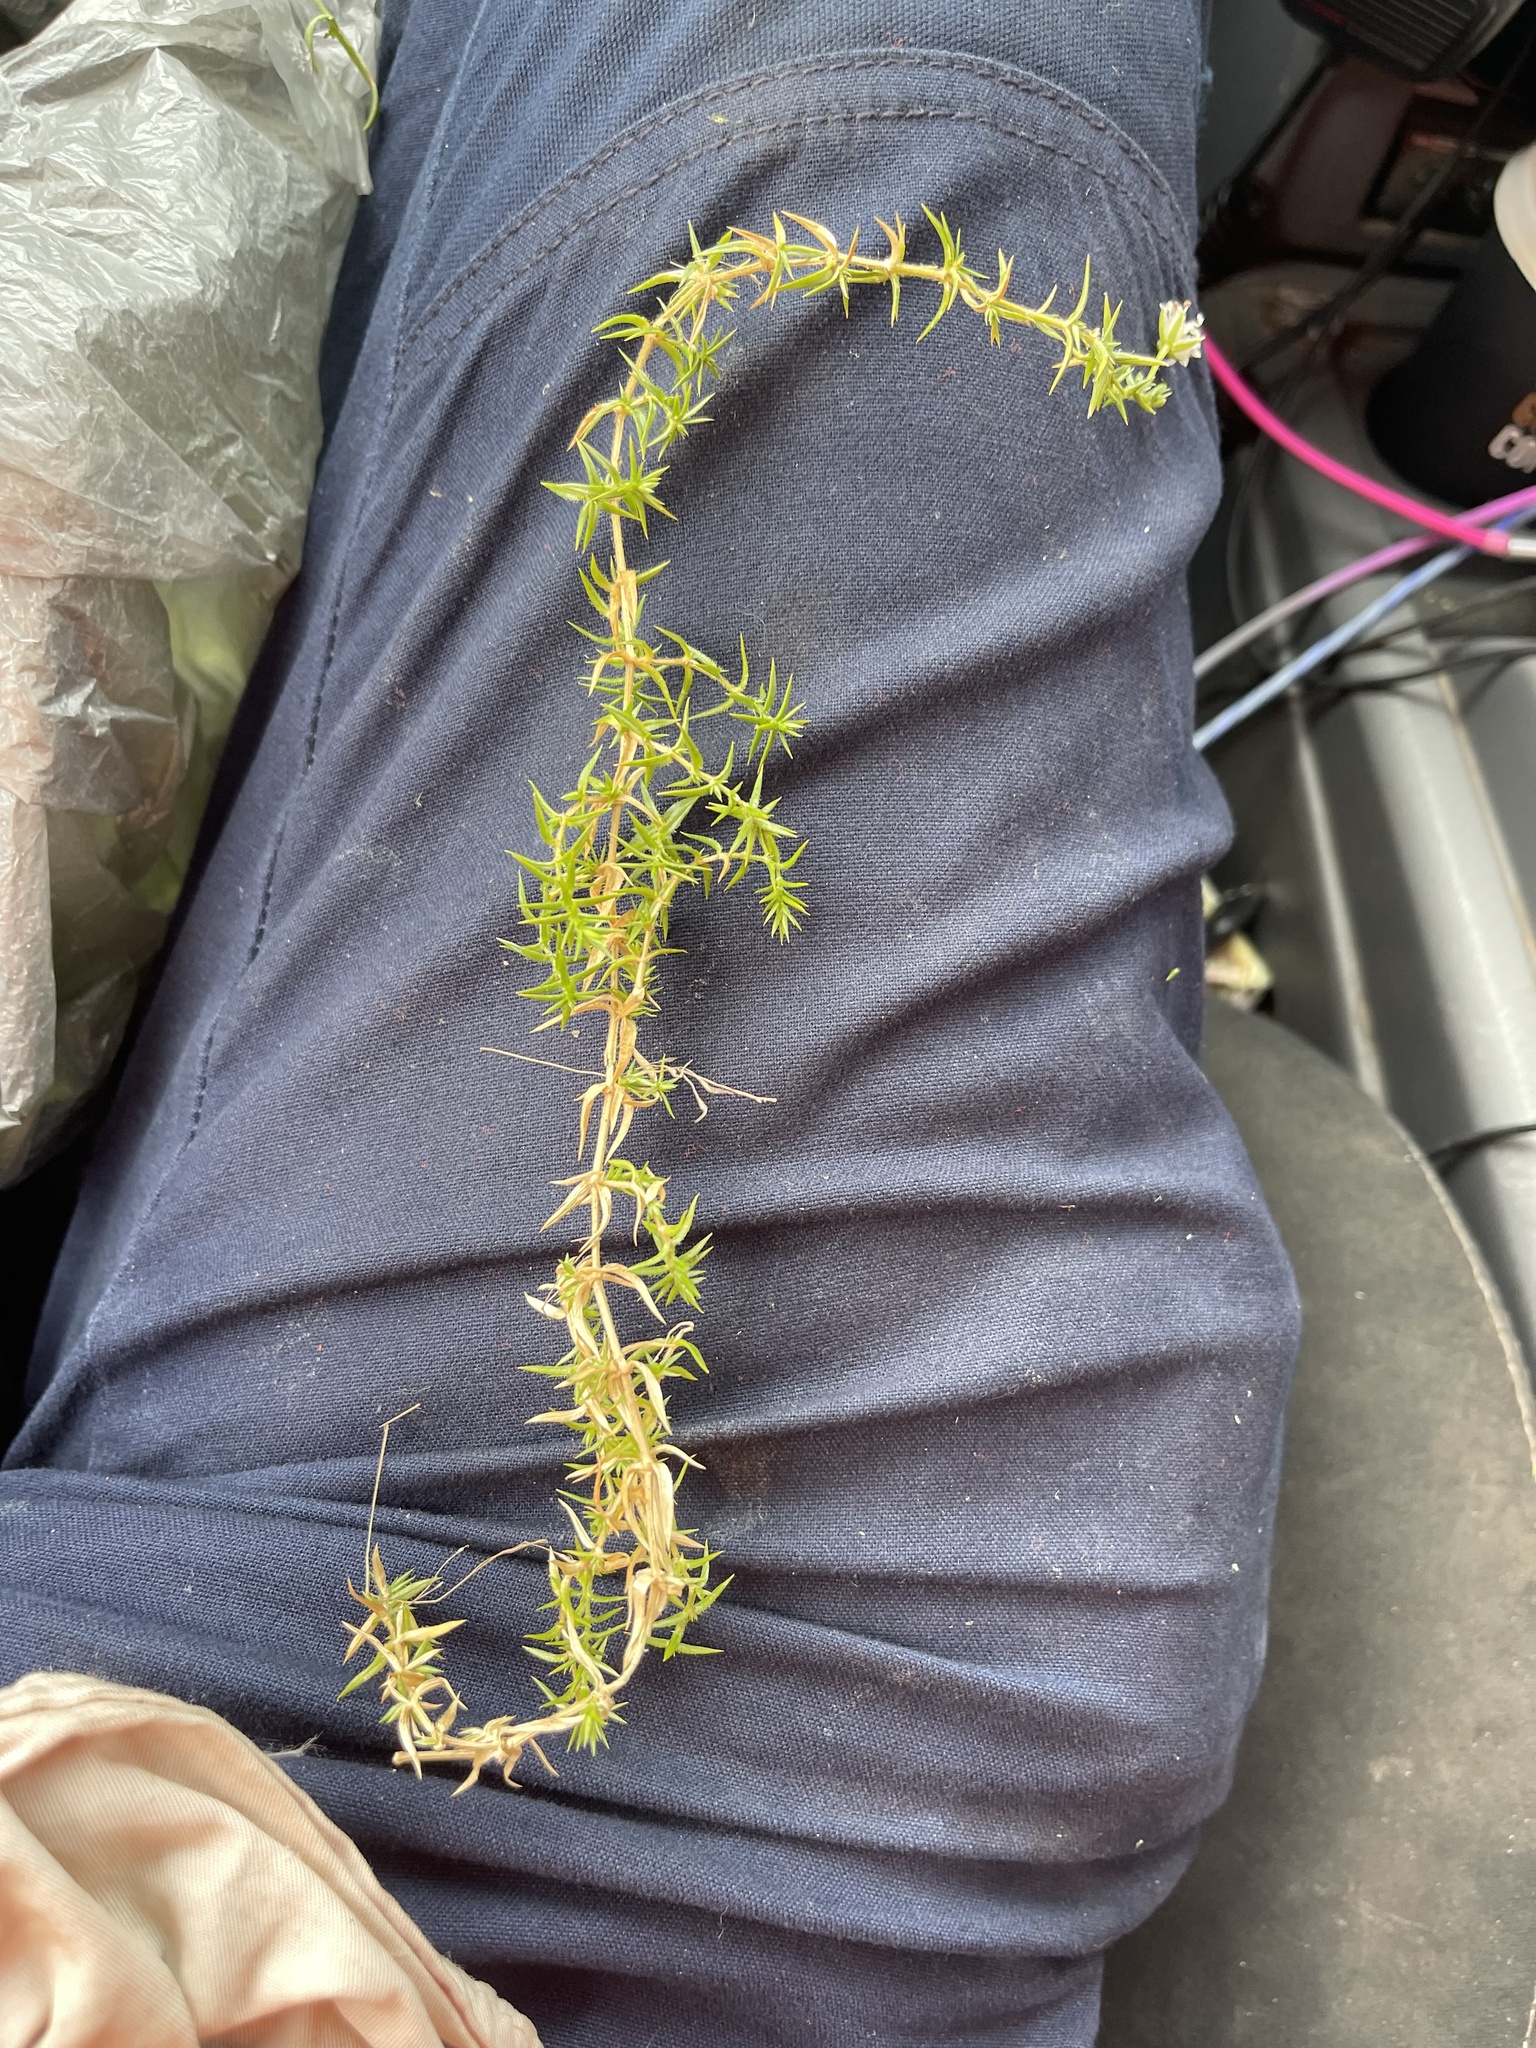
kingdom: Plantae
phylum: Tracheophyta
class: Magnoliopsida
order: Caryophyllales
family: Caryophyllaceae
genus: Stellaria
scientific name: Stellaria pungens
